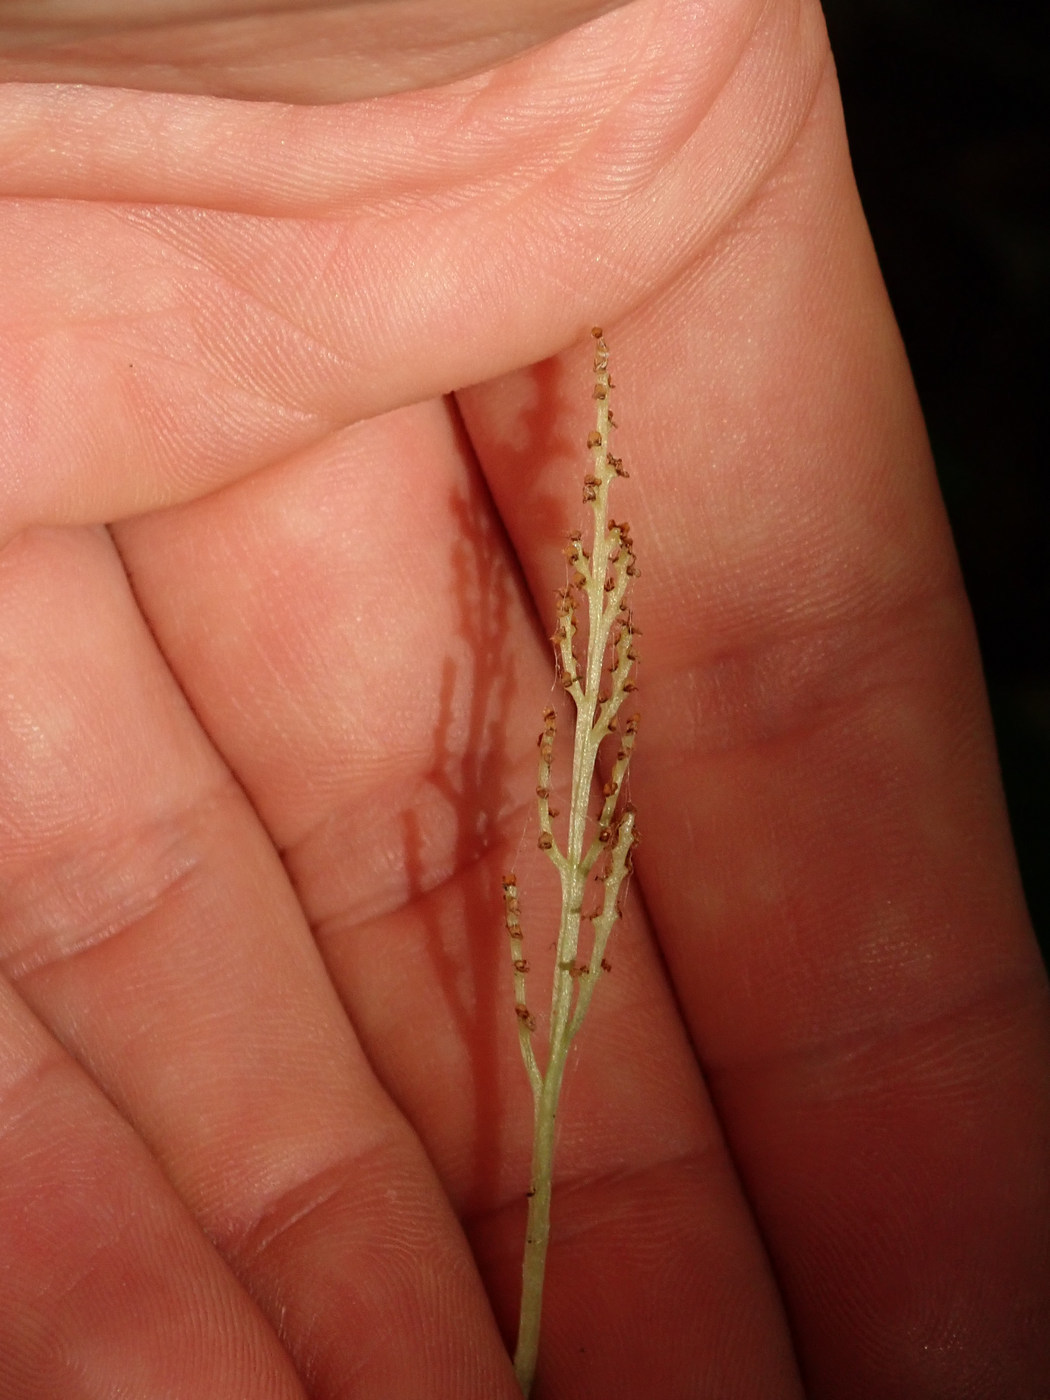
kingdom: Plantae
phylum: Tracheophyta
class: Polypodiopsida
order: Ophioglossales
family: Ophioglossaceae
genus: Botrypus
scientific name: Botrypus virginianus
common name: Common grapefern
